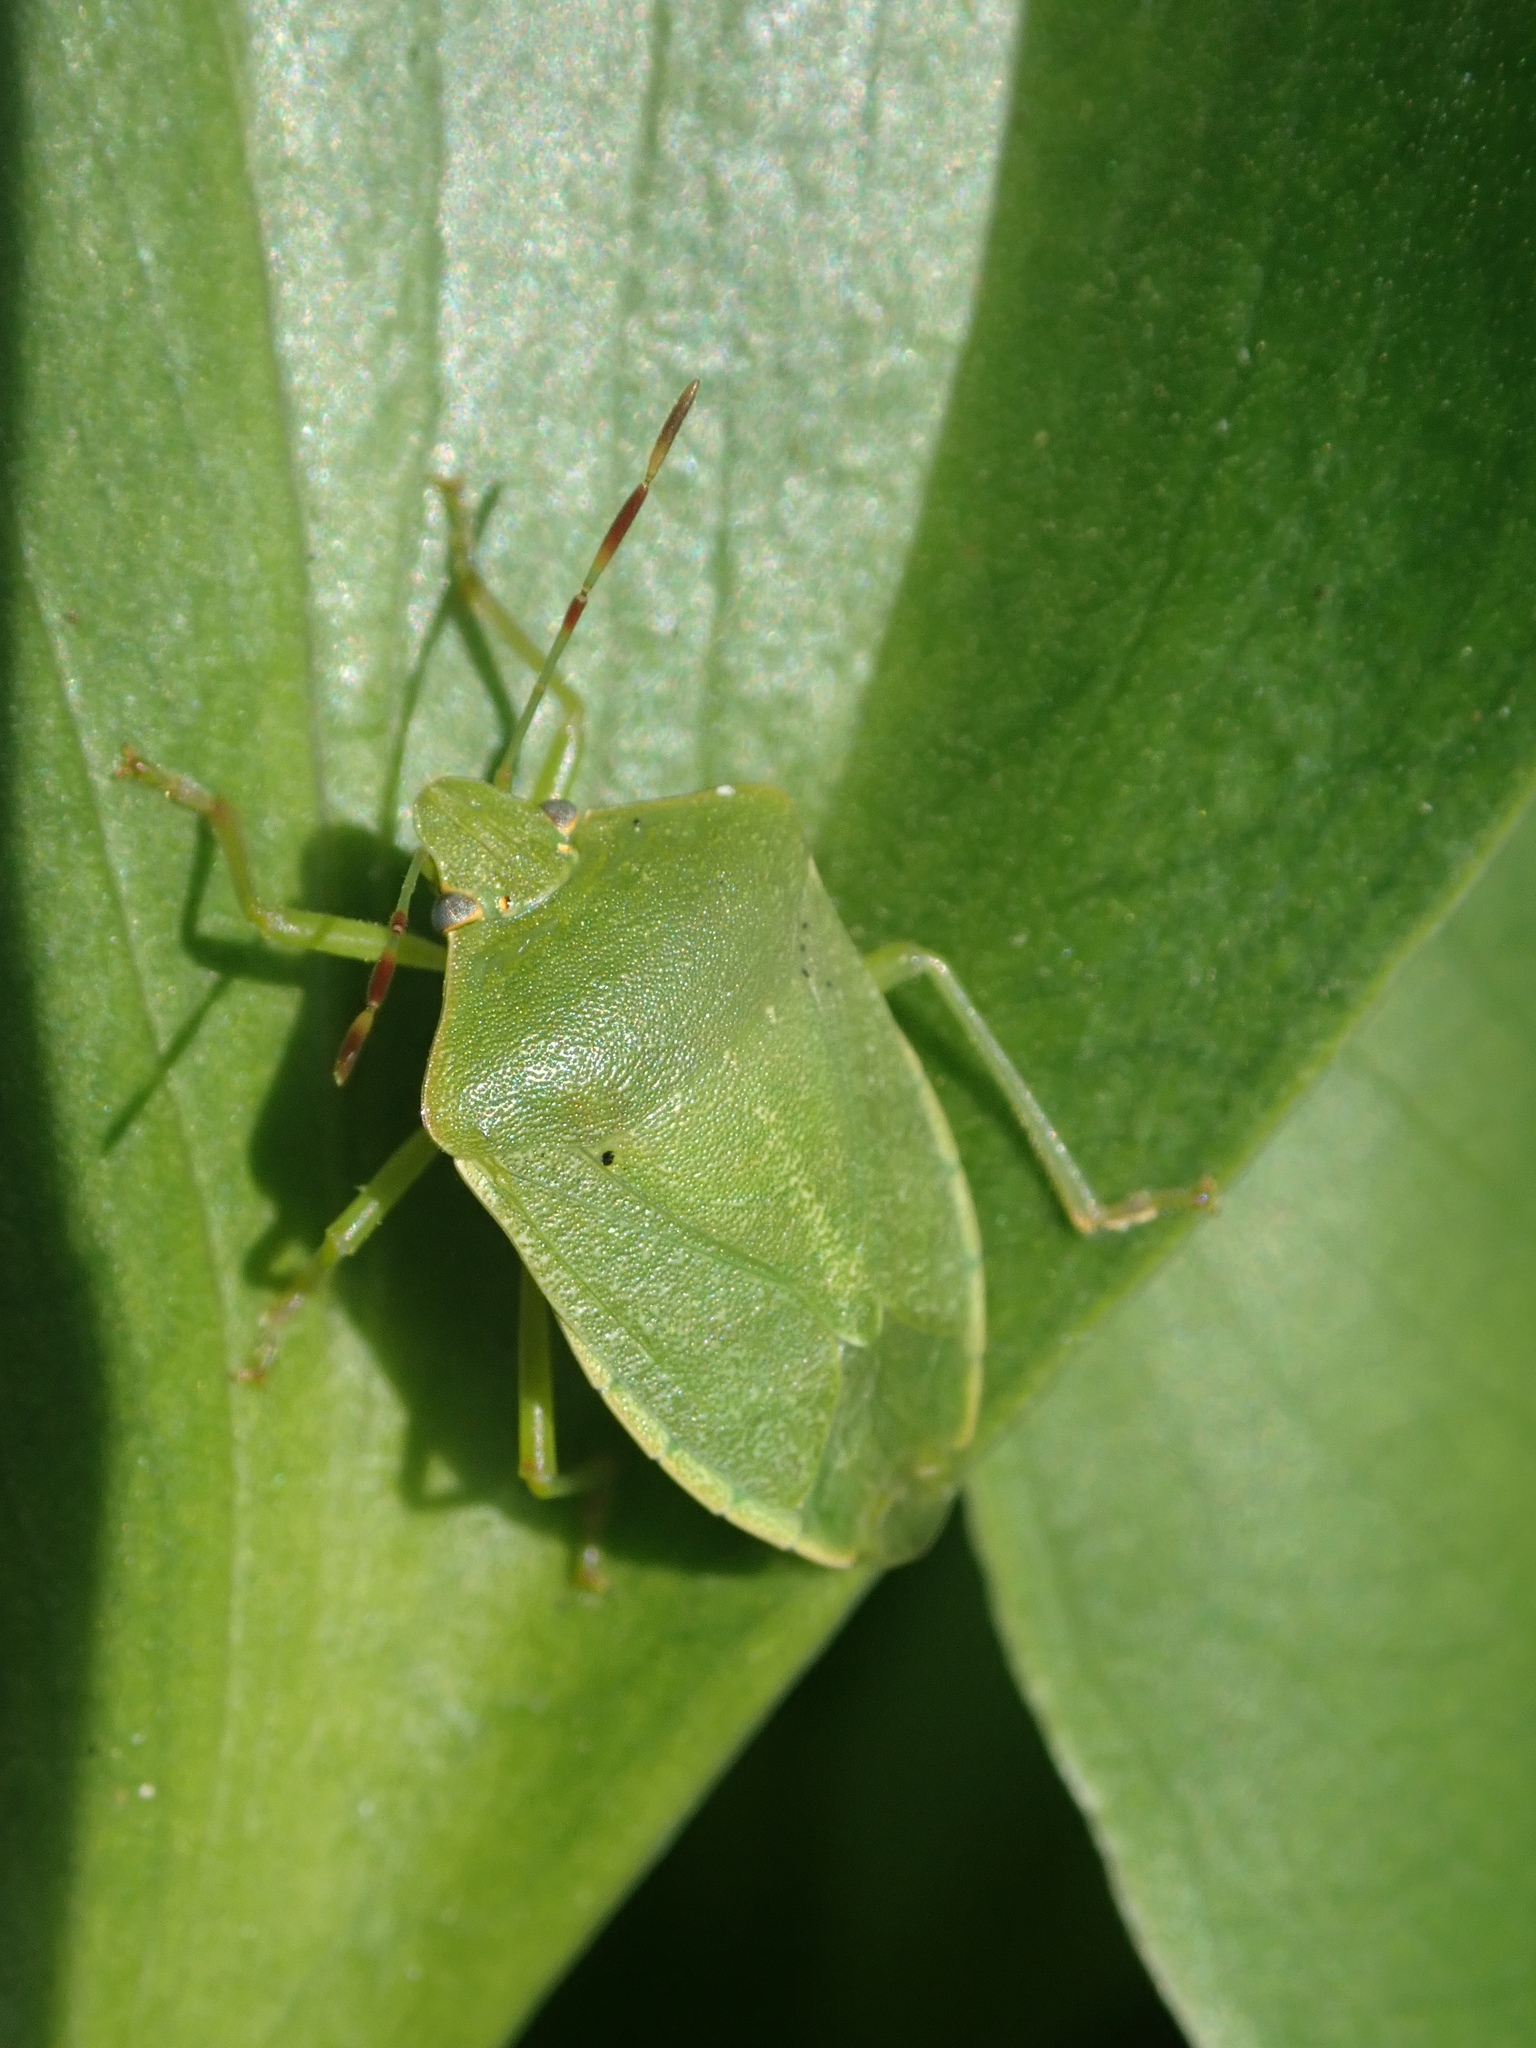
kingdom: Animalia
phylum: Arthropoda
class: Insecta
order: Hemiptera
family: Pentatomidae
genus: Nezara
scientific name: Nezara viridula
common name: Southern green stink bug
